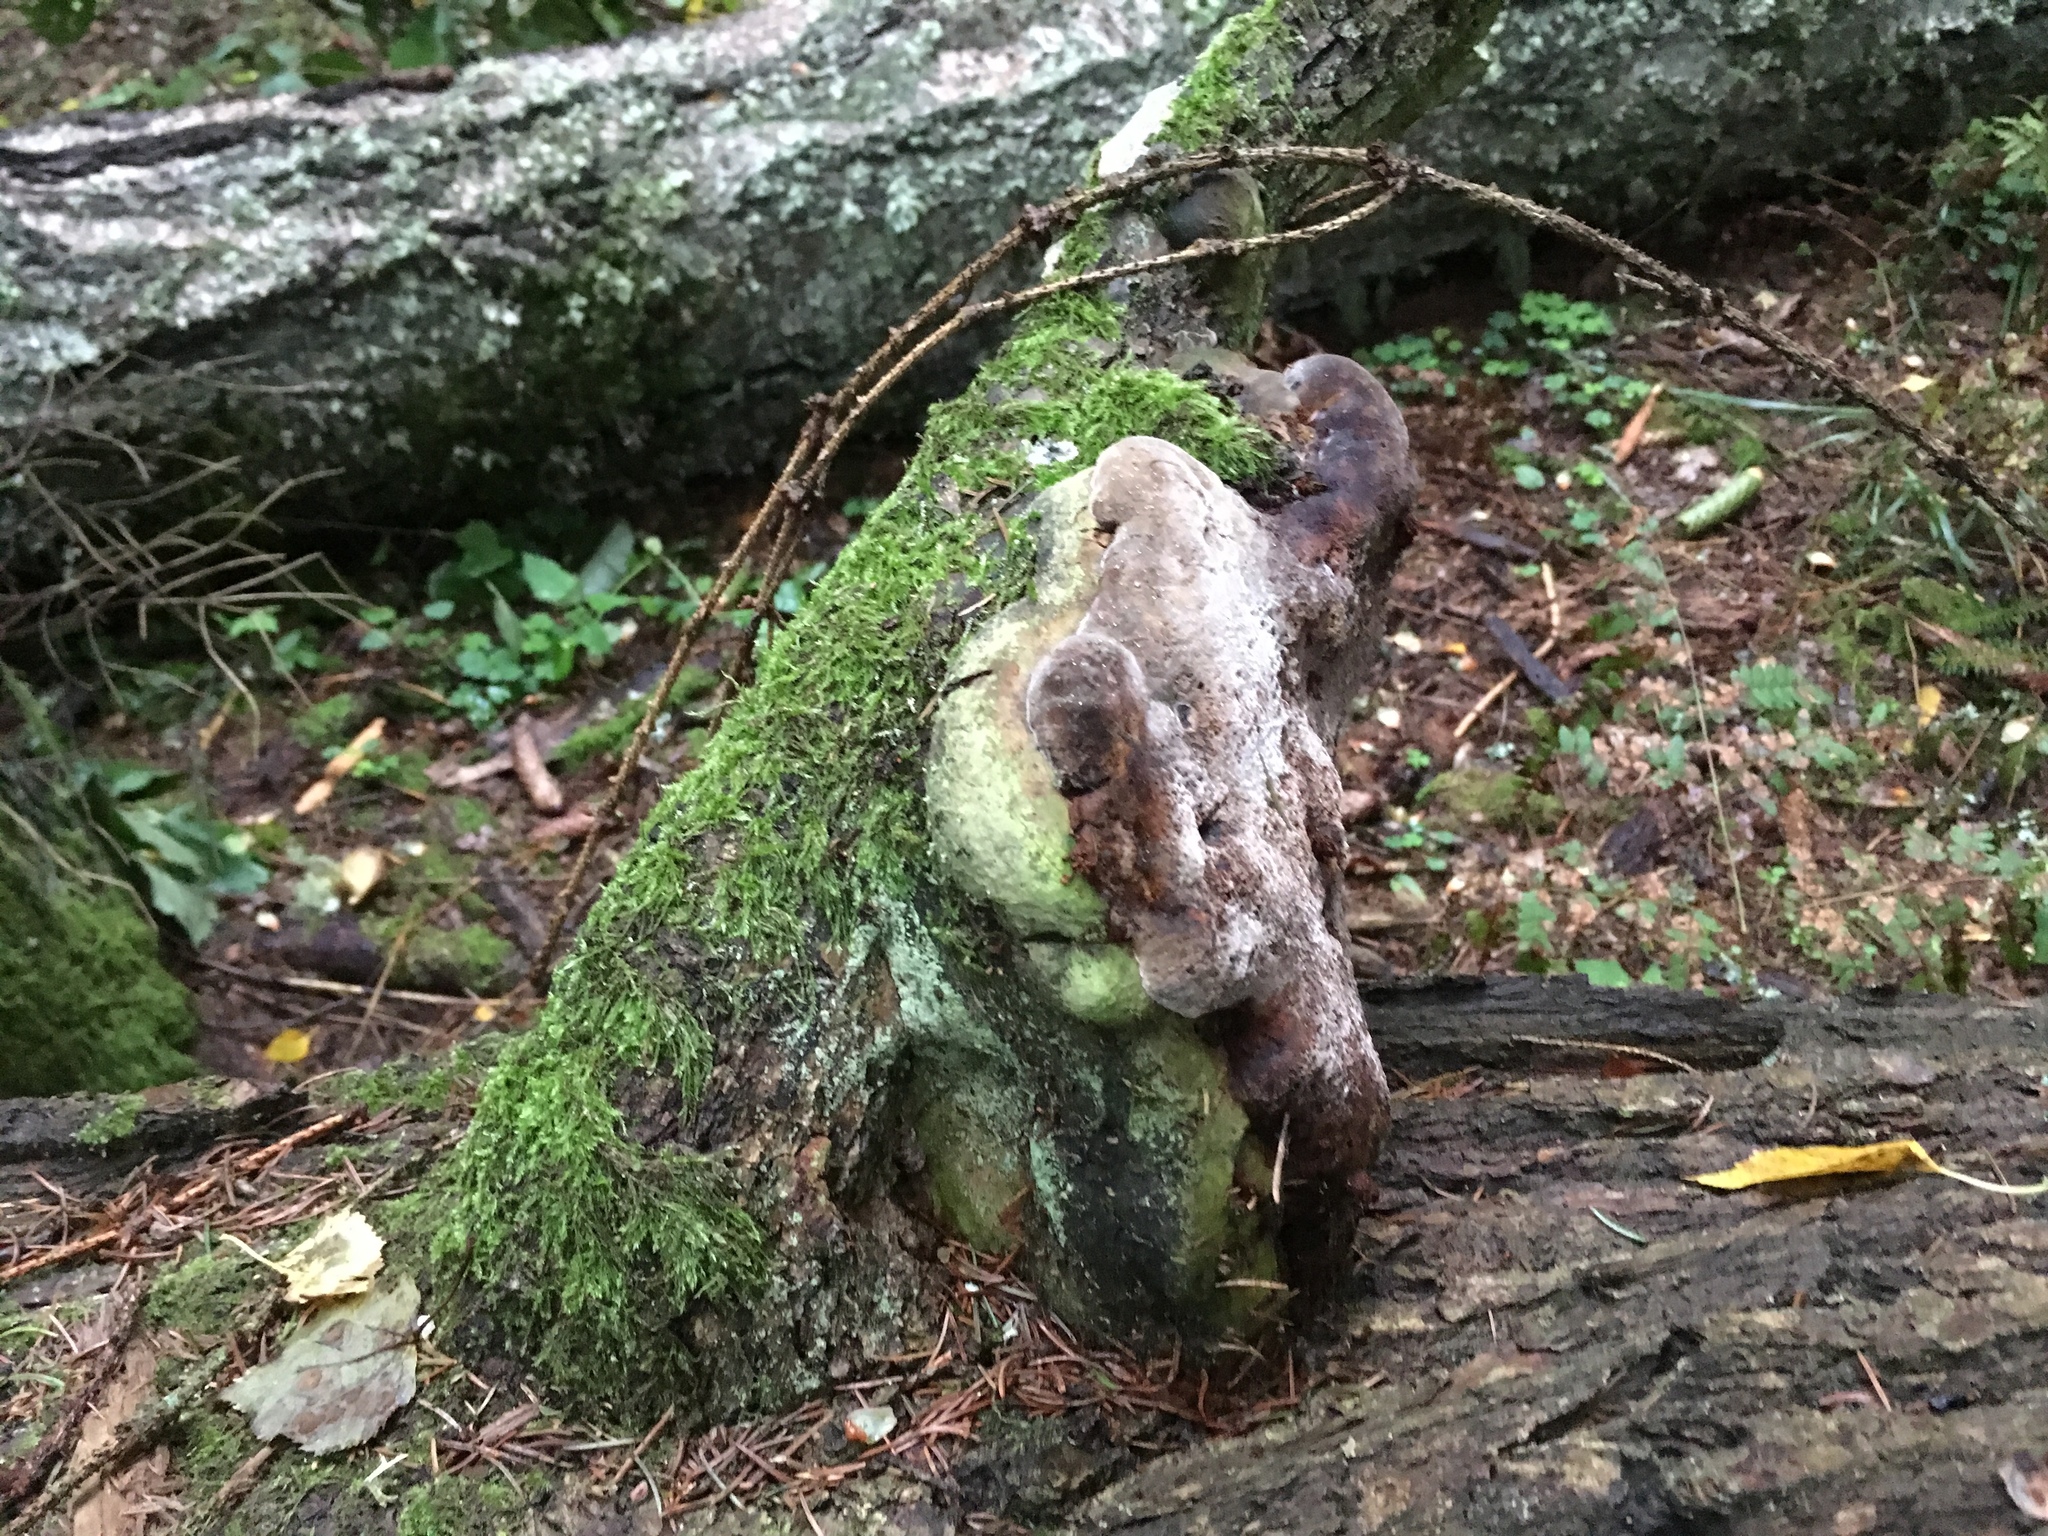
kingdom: Fungi
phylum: Basidiomycota
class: Agaricomycetes
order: Hymenochaetales
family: Hymenochaetaceae
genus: Fomitiporia
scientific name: Fomitiporia robusta
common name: Robust bracket
